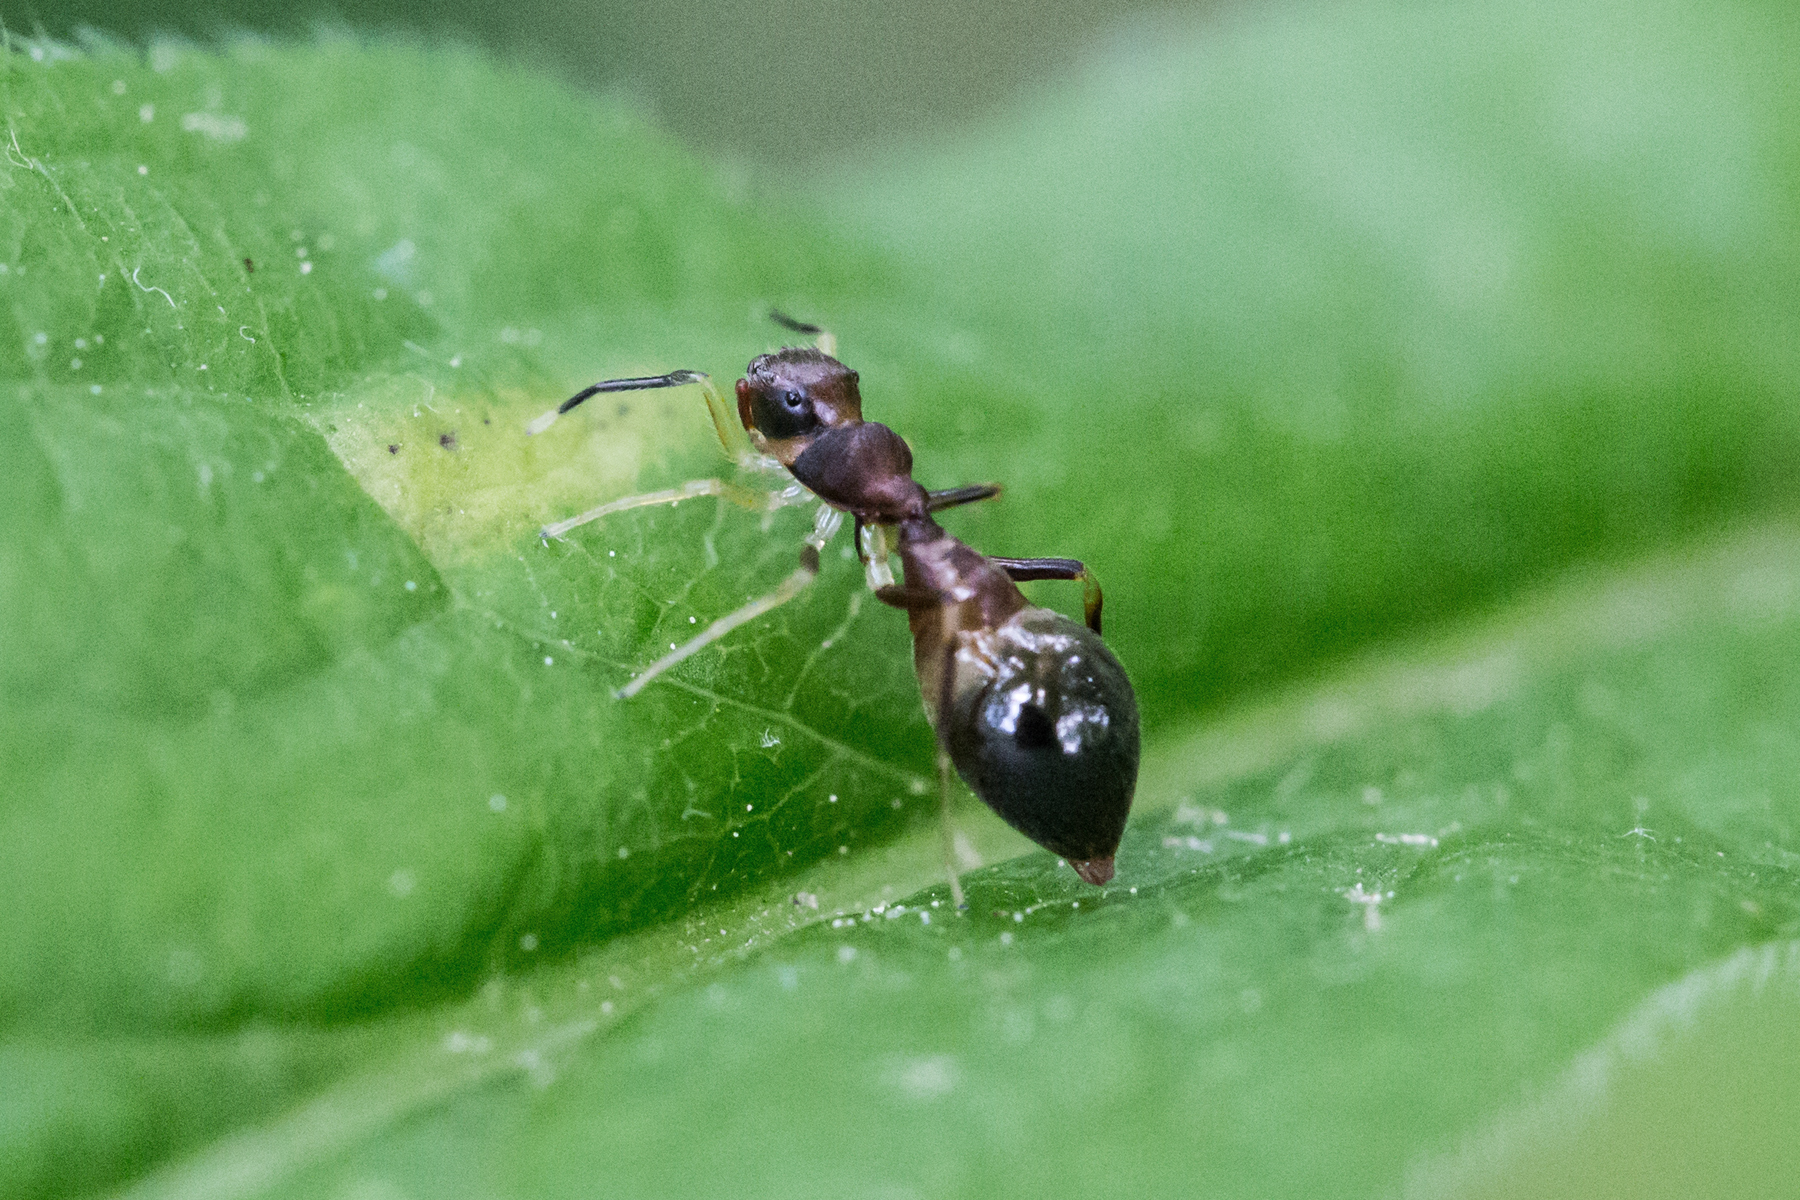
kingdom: Animalia
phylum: Arthropoda
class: Arachnida
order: Araneae
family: Salticidae
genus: Synemosyna
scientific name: Synemosyna formica
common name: Slender ant-mimic jumping spider
